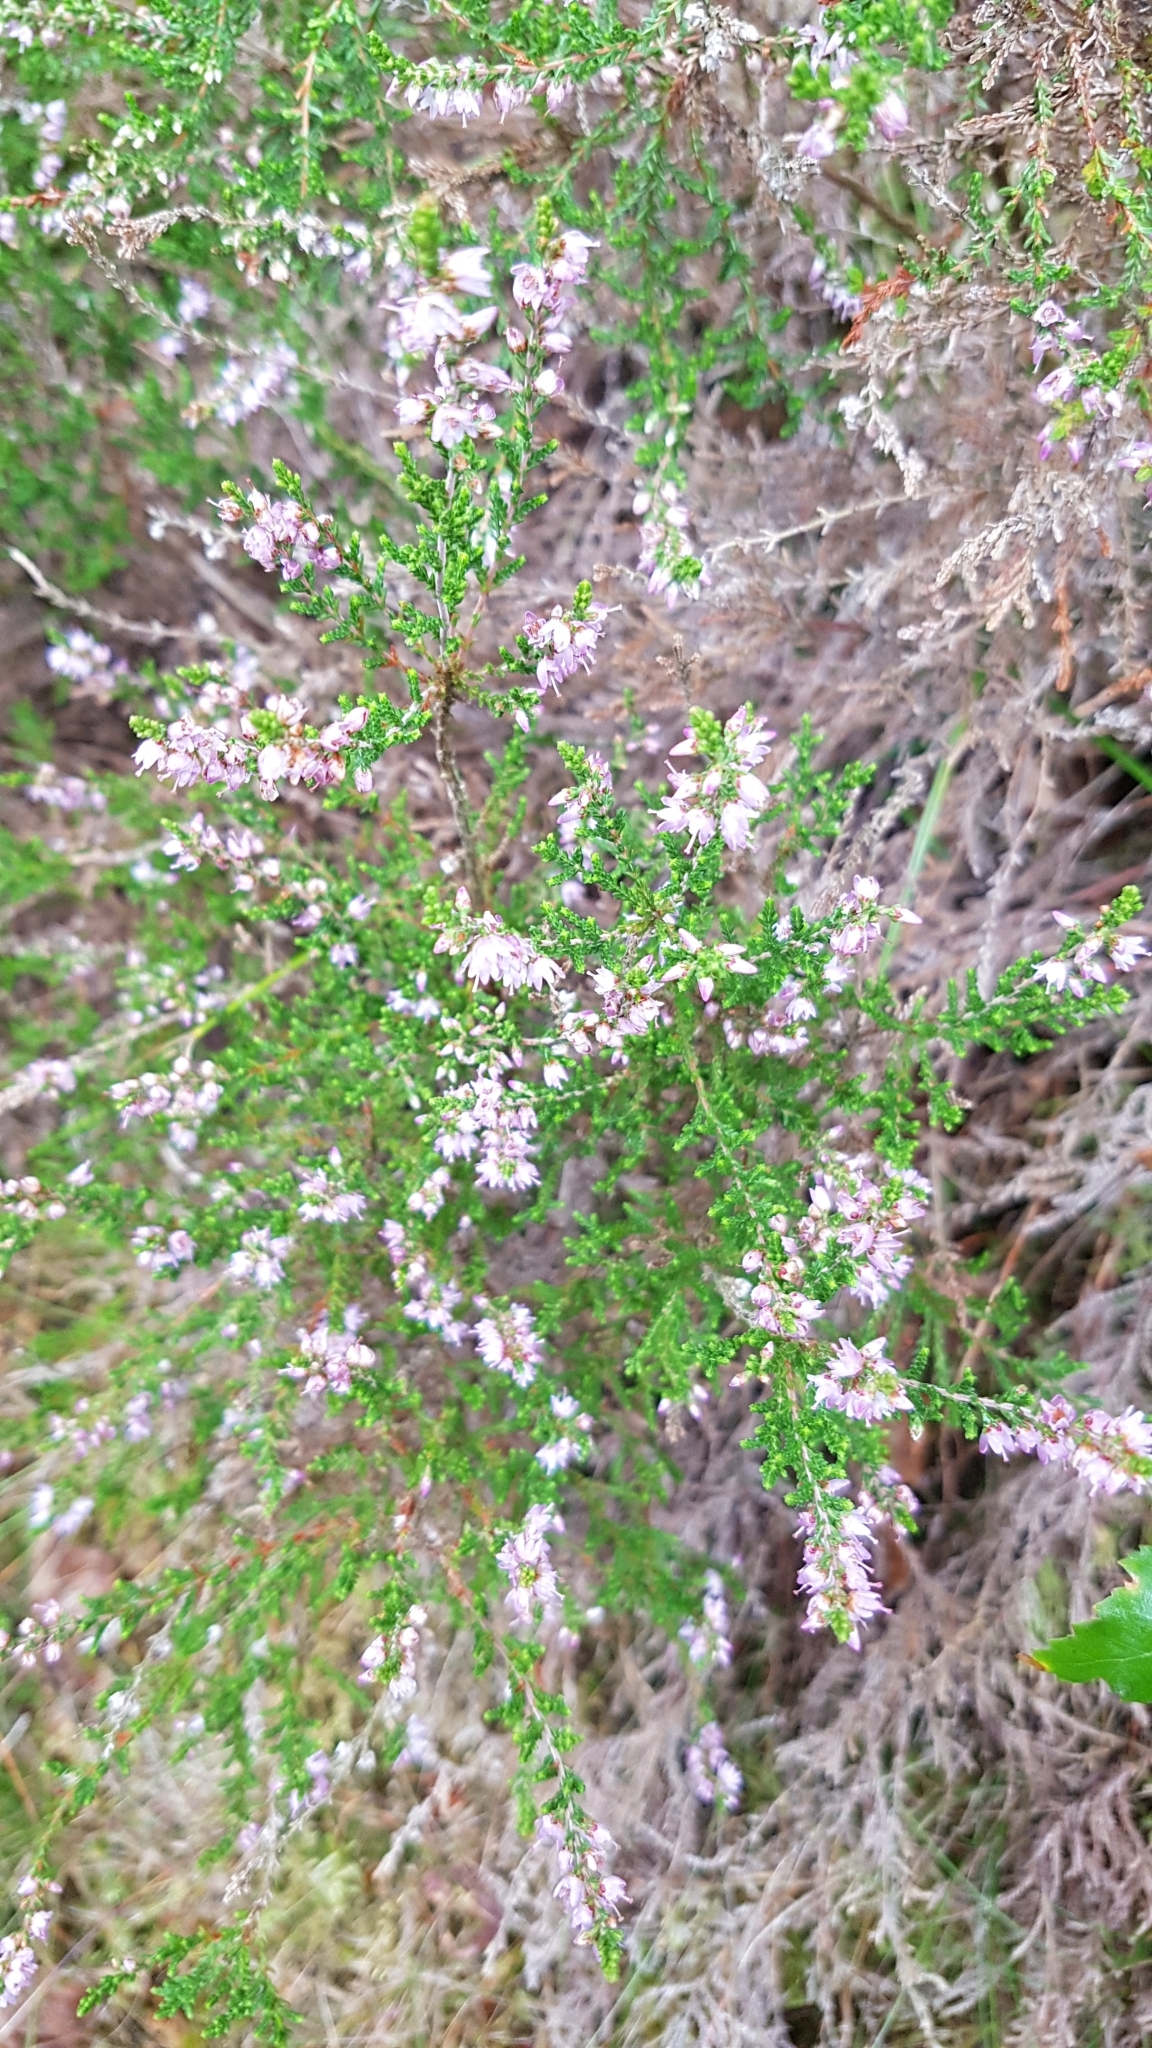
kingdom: Plantae
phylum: Tracheophyta
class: Magnoliopsida
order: Ericales
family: Ericaceae
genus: Calluna
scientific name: Calluna vulgaris
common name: Heather
